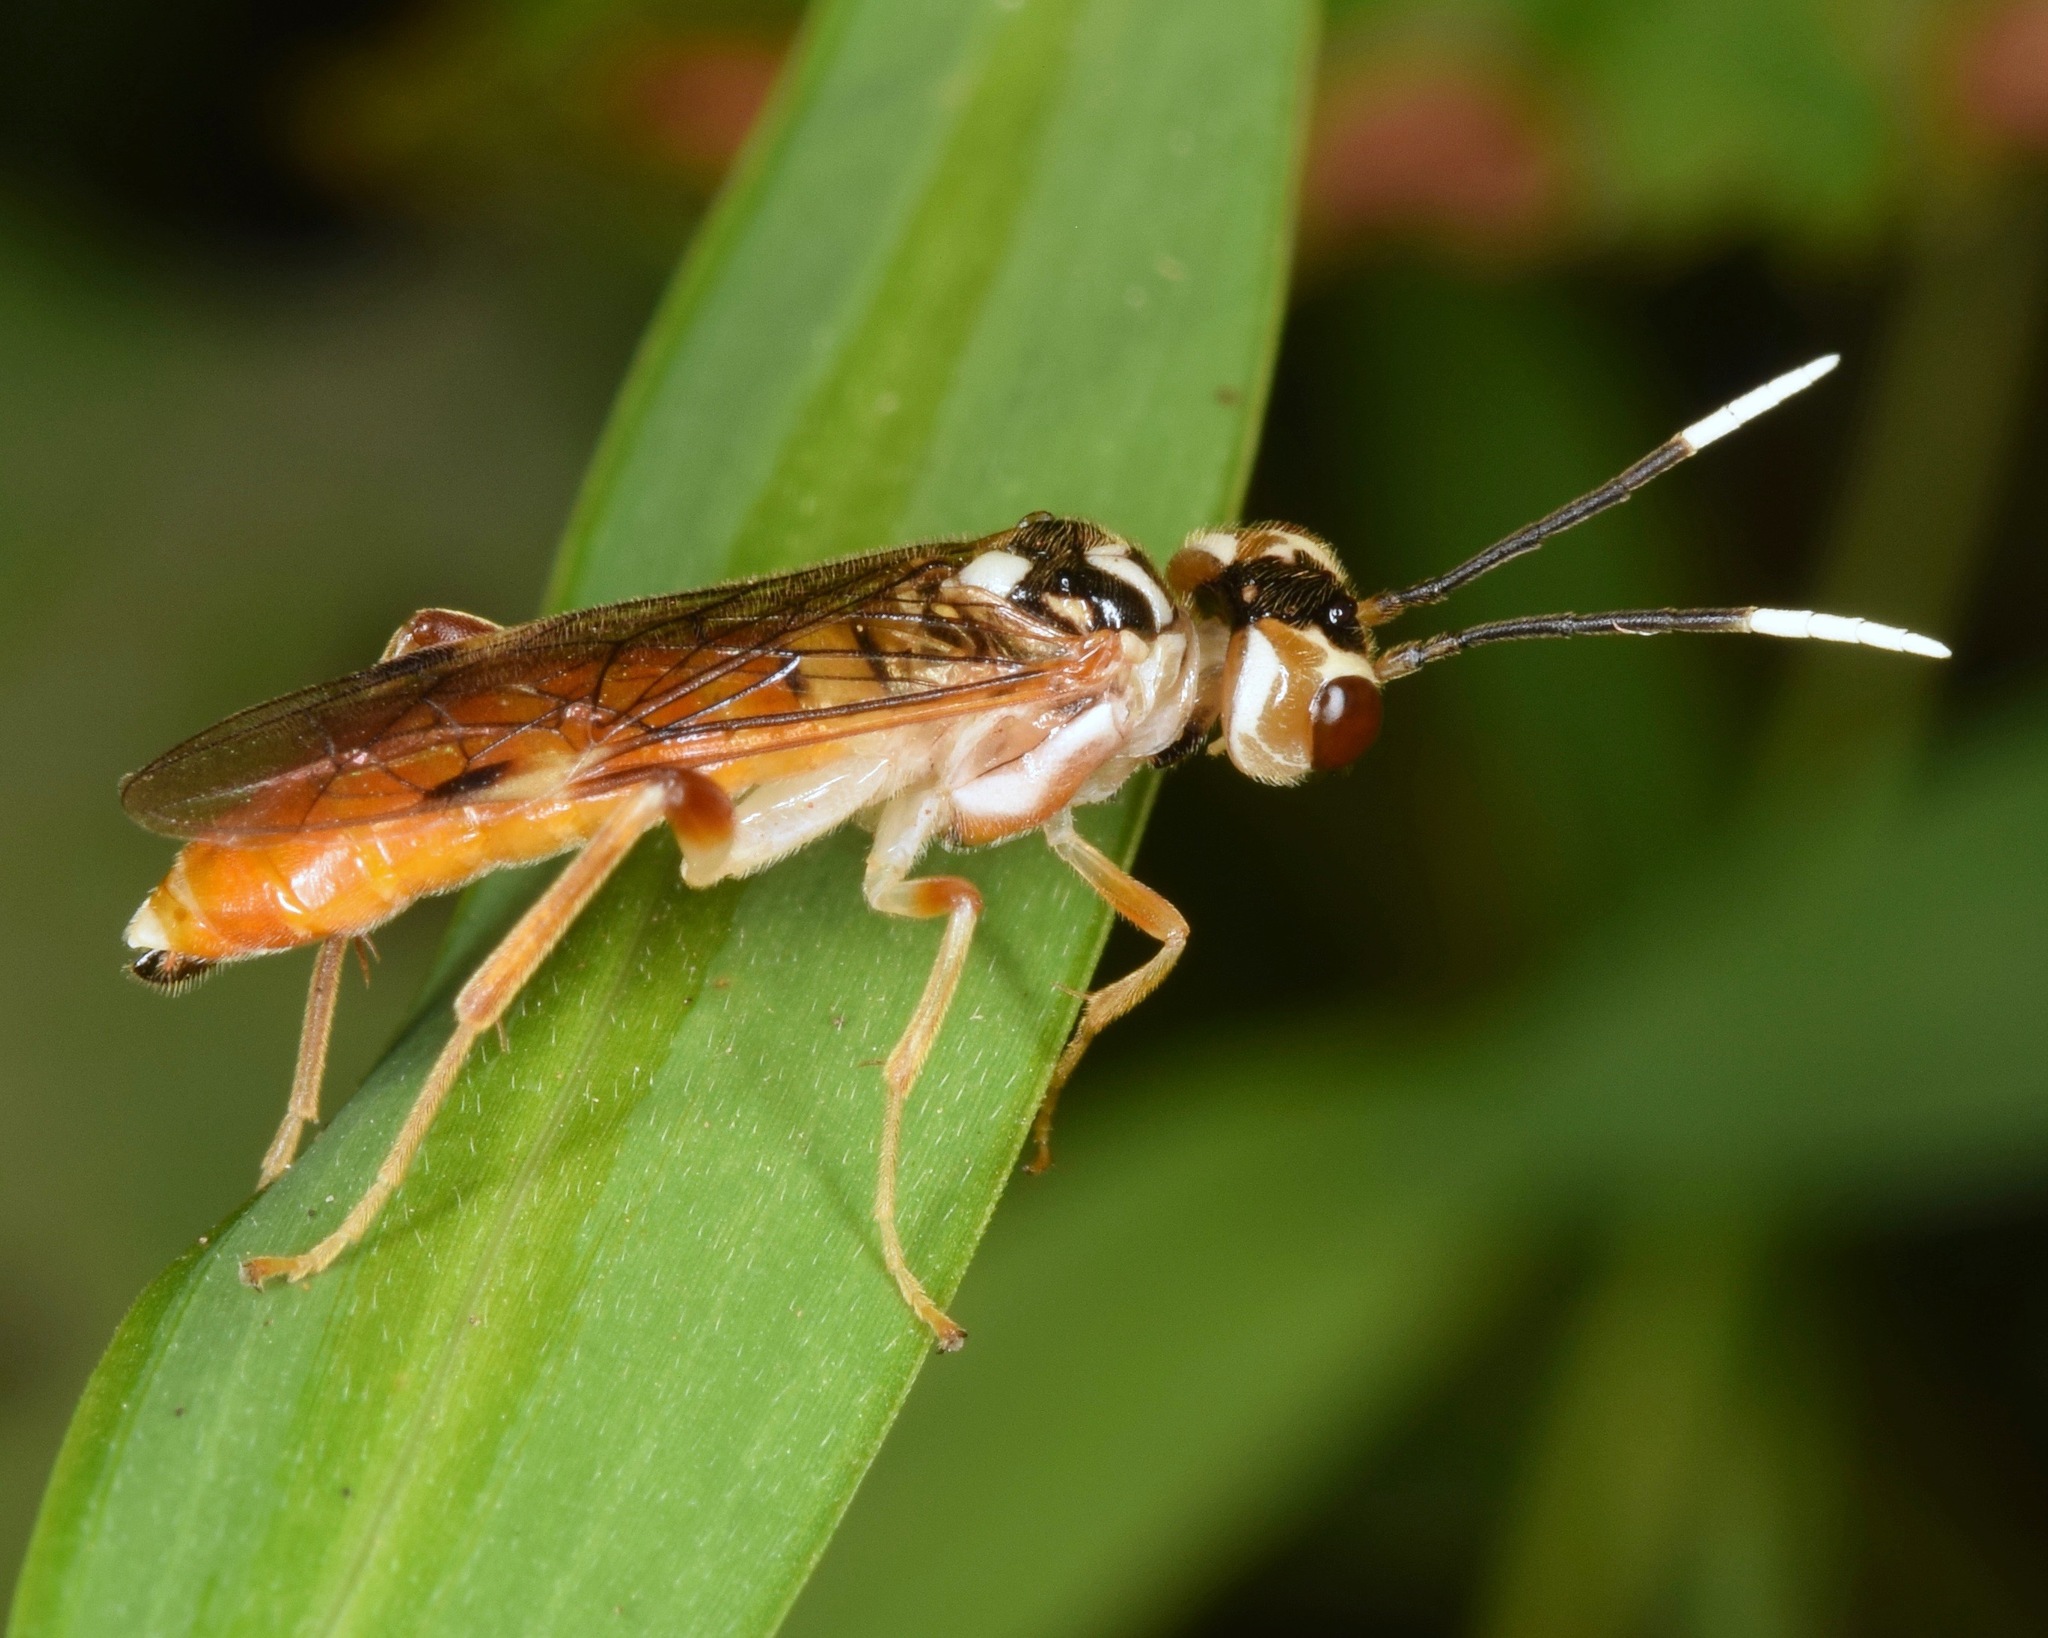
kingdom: Animalia
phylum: Arthropoda
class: Insecta
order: Hymenoptera
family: Tenthredinidae
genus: Taxonus
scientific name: Taxonus pallidicornis
